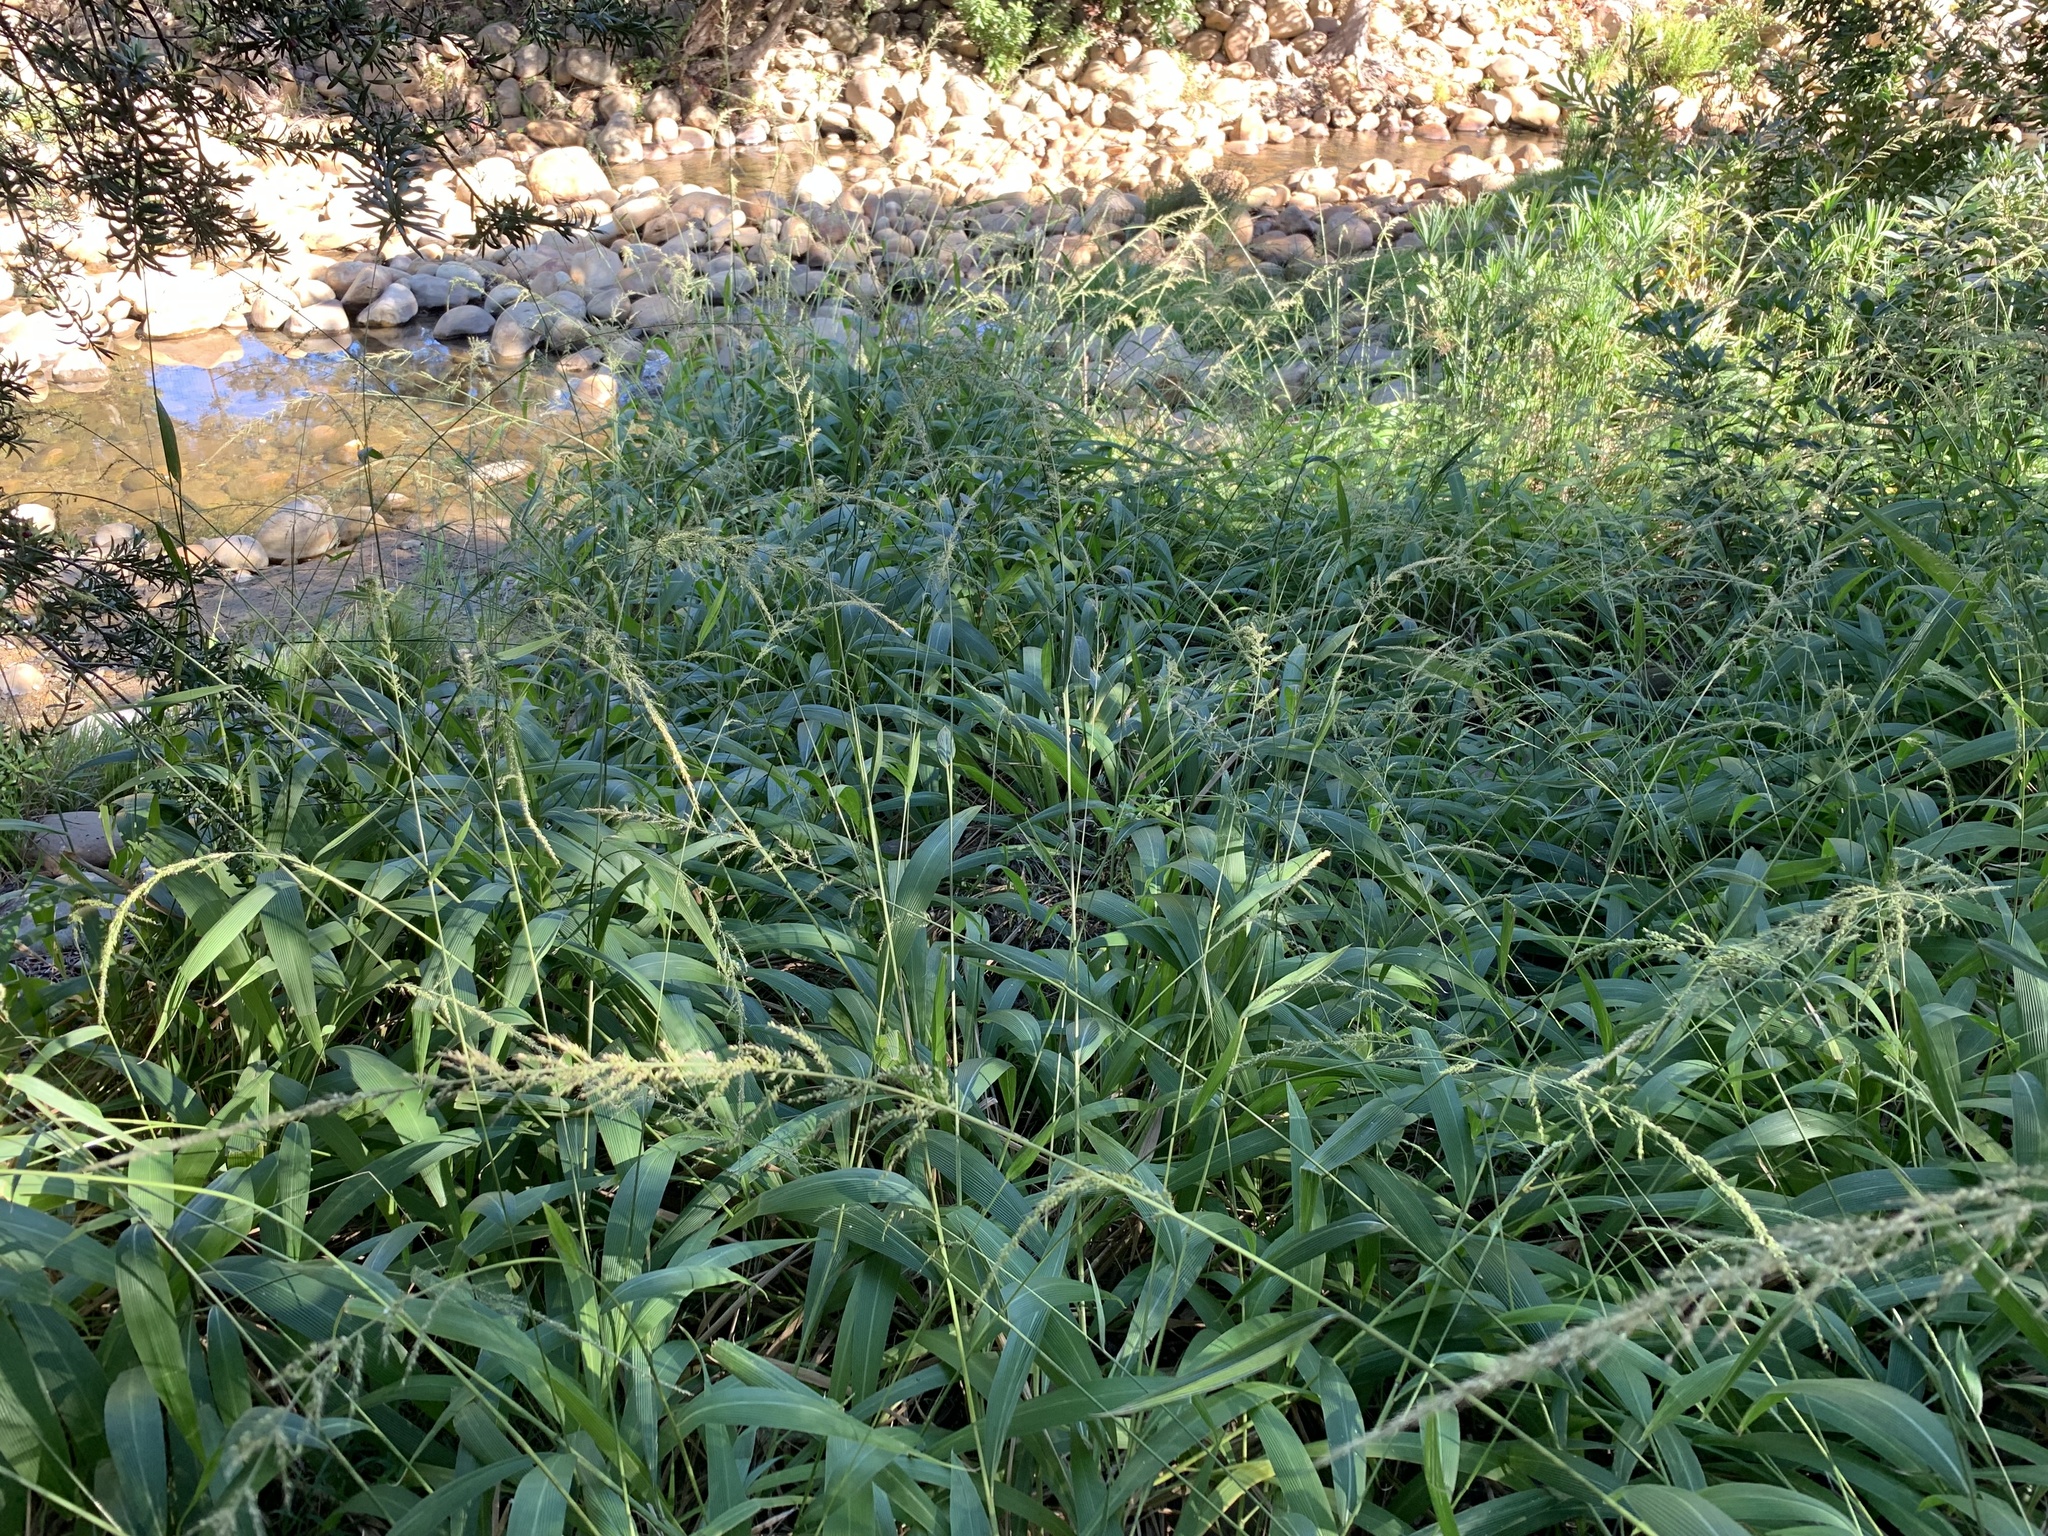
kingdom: Plantae
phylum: Tracheophyta
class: Liliopsida
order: Poales
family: Poaceae
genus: Setaria
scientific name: Setaria megaphylla
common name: Bigleaf bristlegrass
